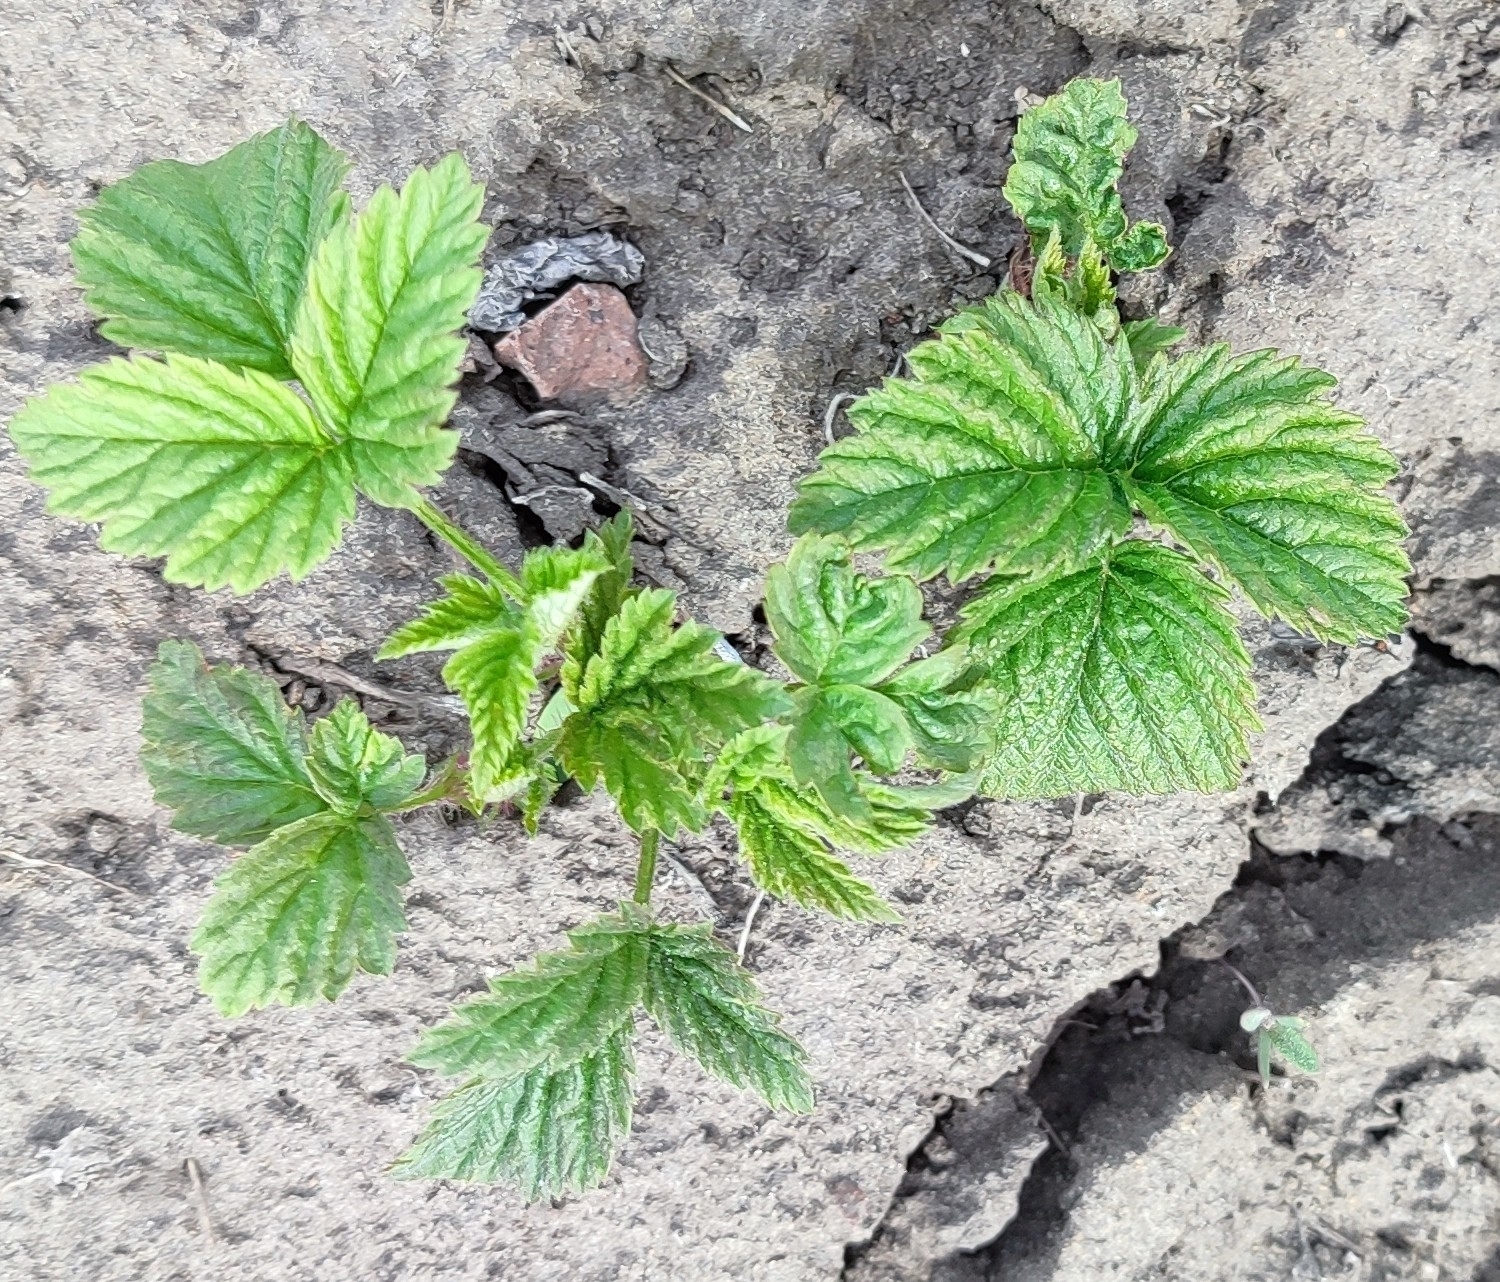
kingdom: Plantae
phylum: Tracheophyta
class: Magnoliopsida
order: Rosales
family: Rosaceae
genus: Rubus
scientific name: Rubus idaeus
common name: Raspberry
